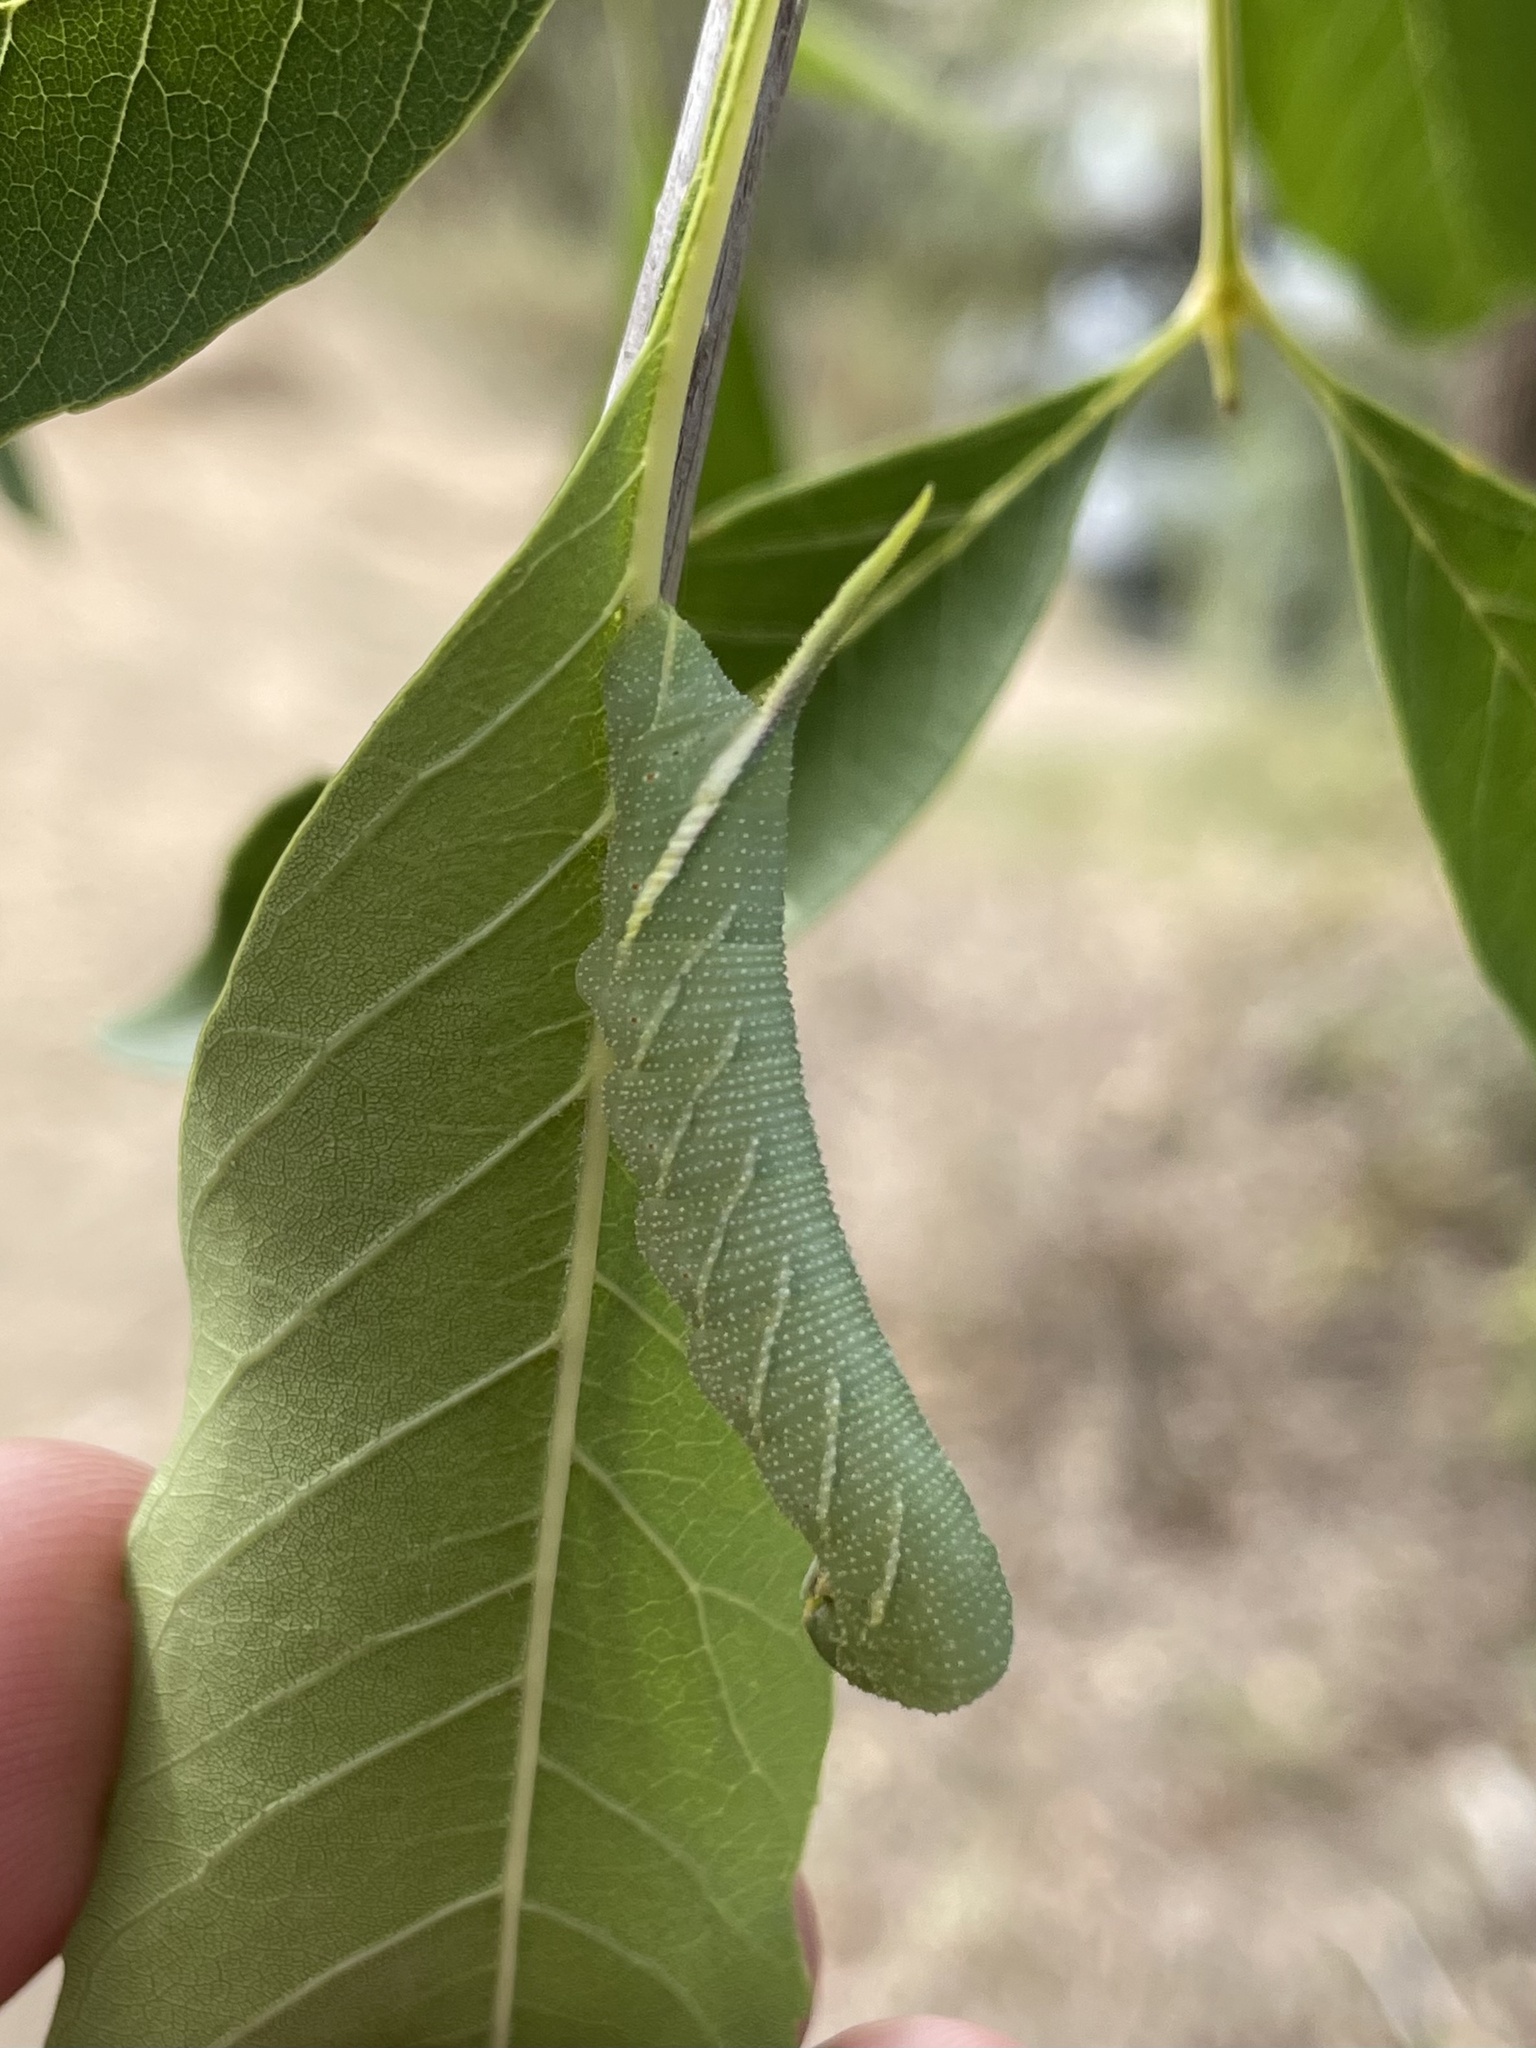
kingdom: Animalia
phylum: Arthropoda
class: Insecta
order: Lepidoptera
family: Sphingidae
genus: Ceratomia
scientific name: Ceratomia undulosa
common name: Waved sphinx
